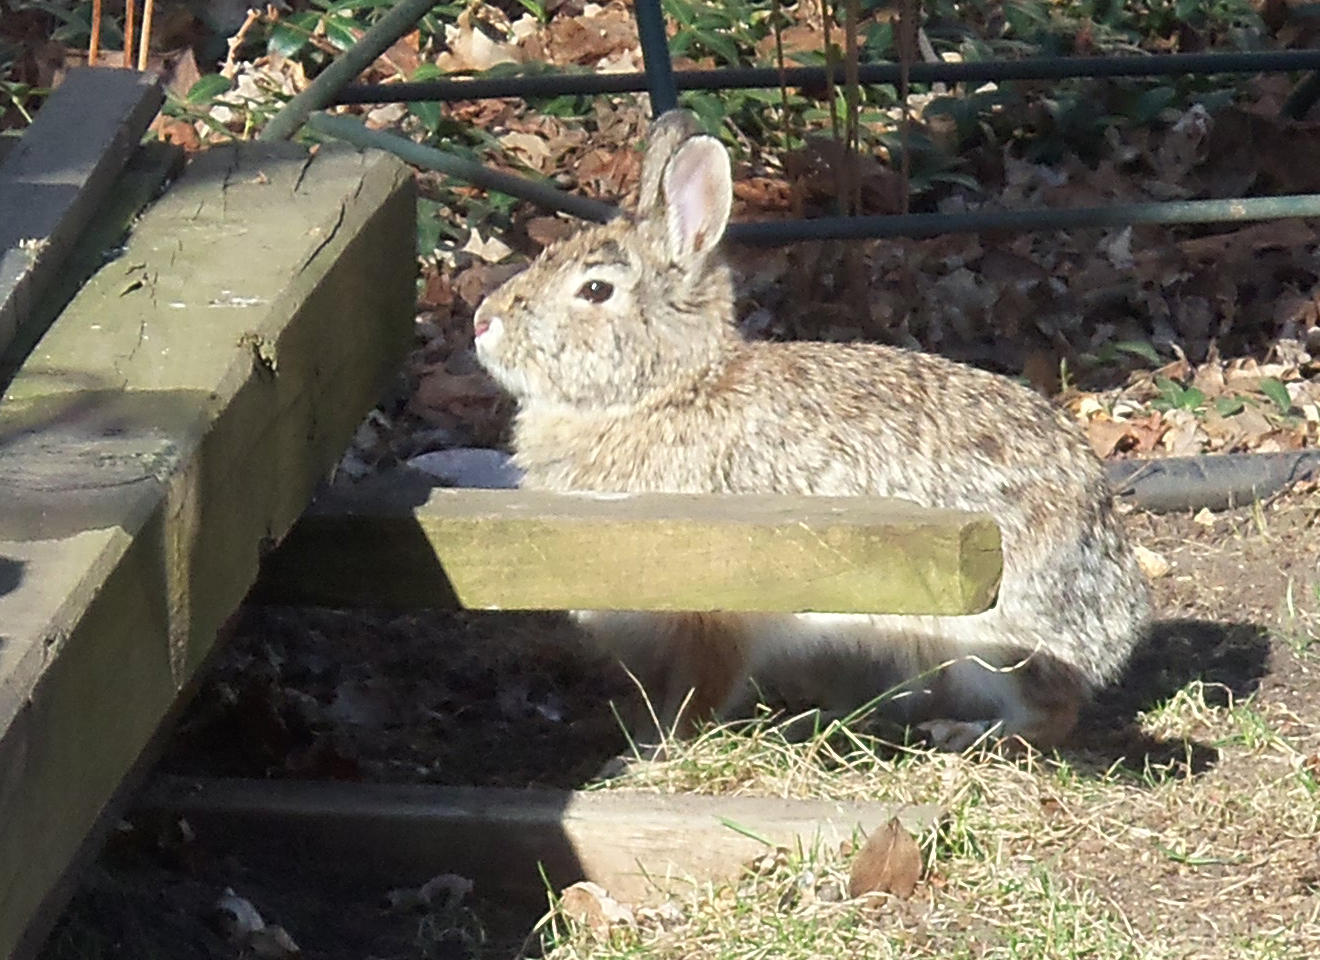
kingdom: Animalia
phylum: Chordata
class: Mammalia
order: Lagomorpha
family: Leporidae
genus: Sylvilagus
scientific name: Sylvilagus floridanus
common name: Eastern cottontail
